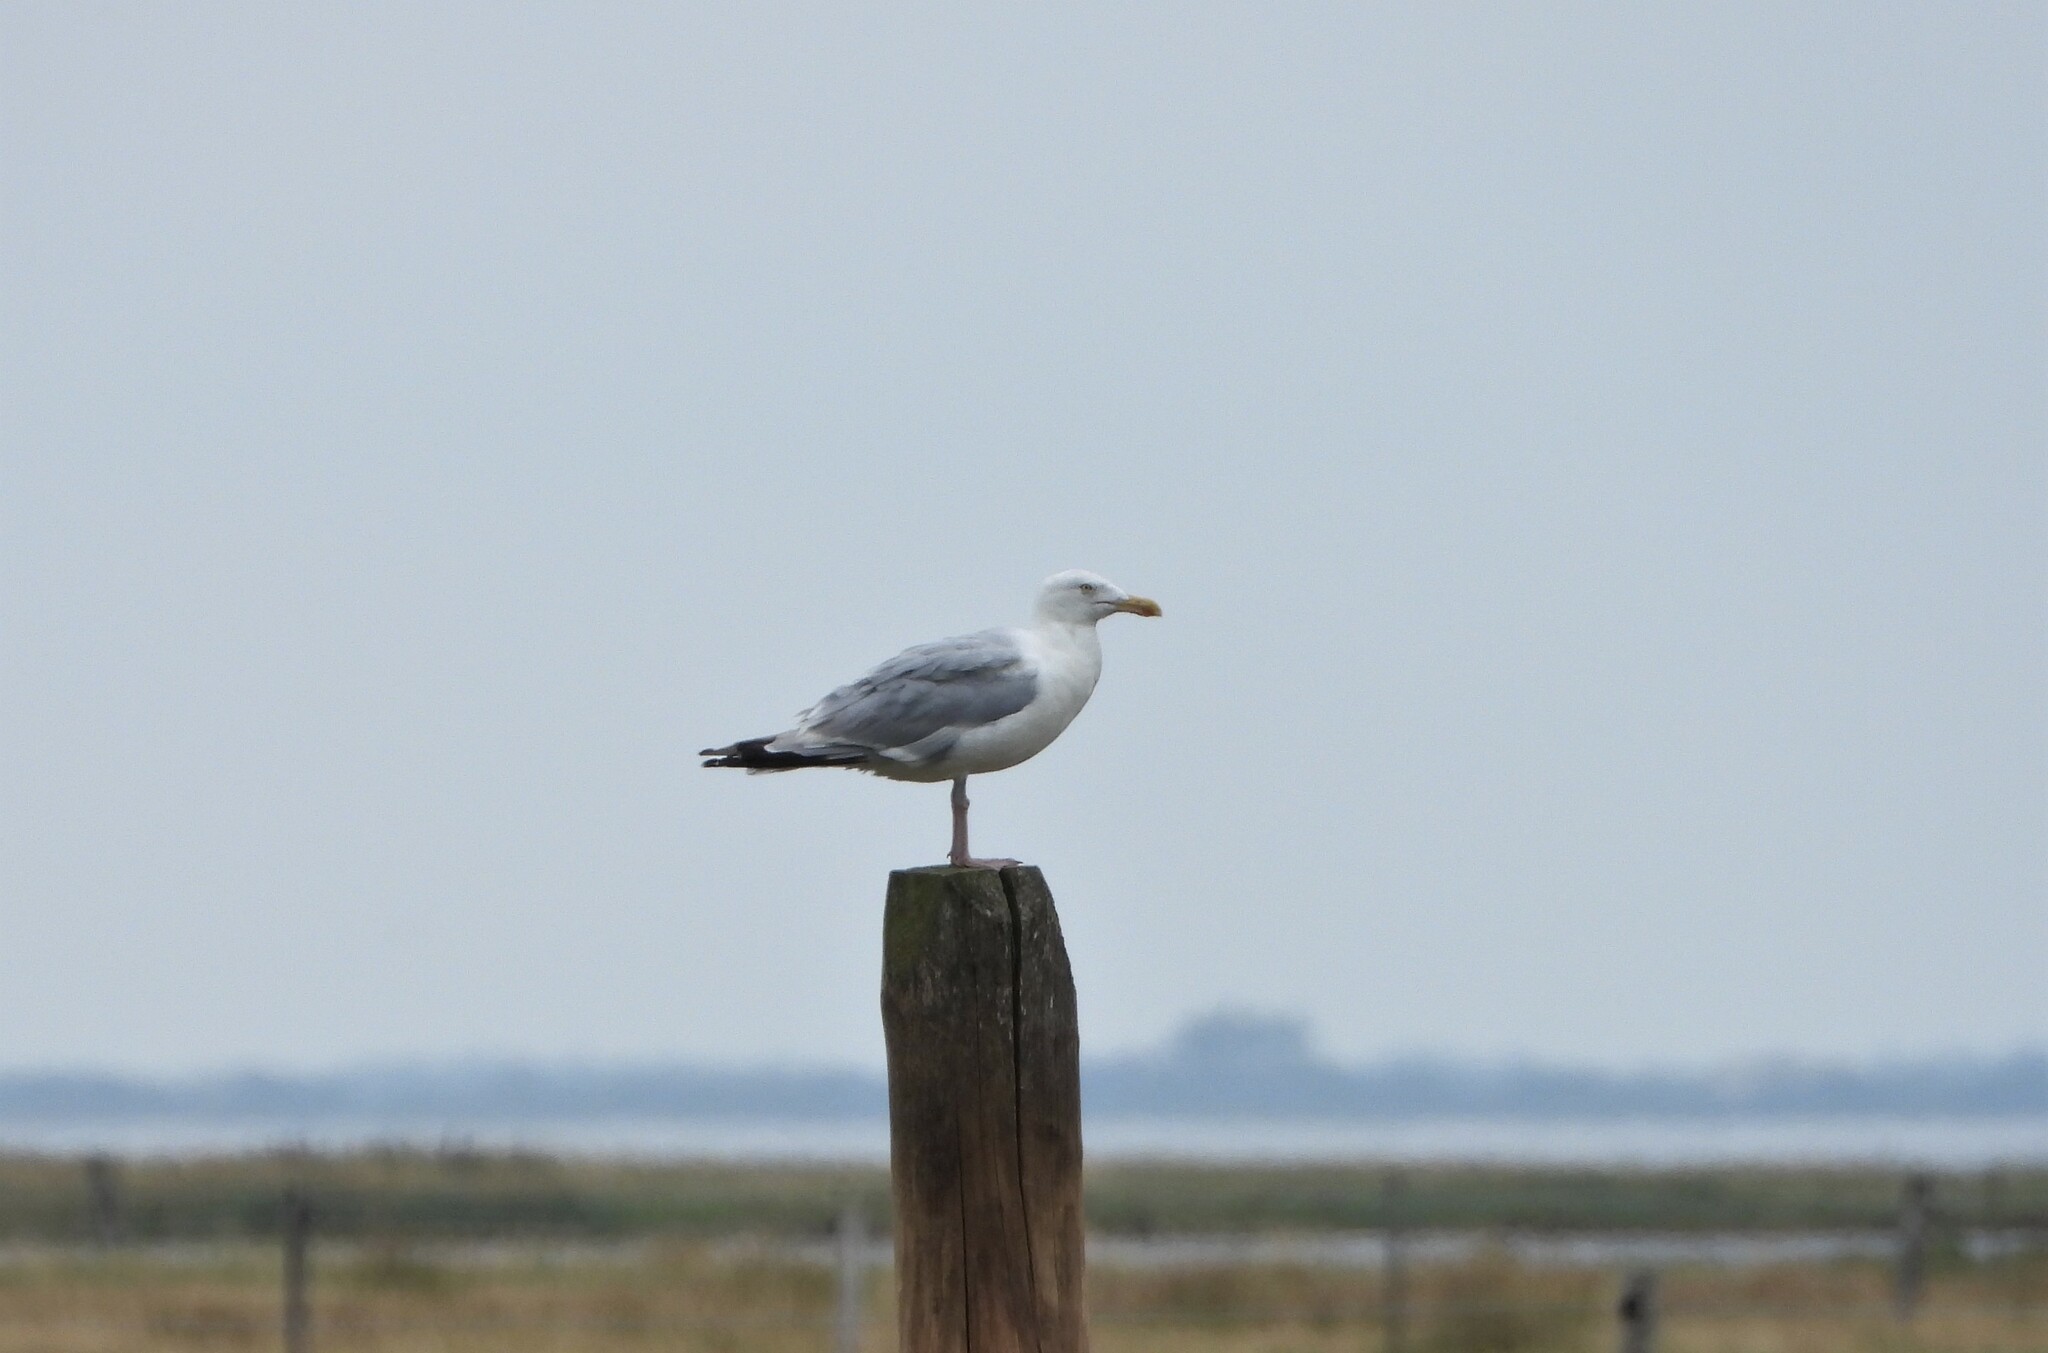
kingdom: Animalia
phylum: Chordata
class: Aves
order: Charadriiformes
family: Laridae
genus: Larus
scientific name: Larus argentatus
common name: Herring gull
